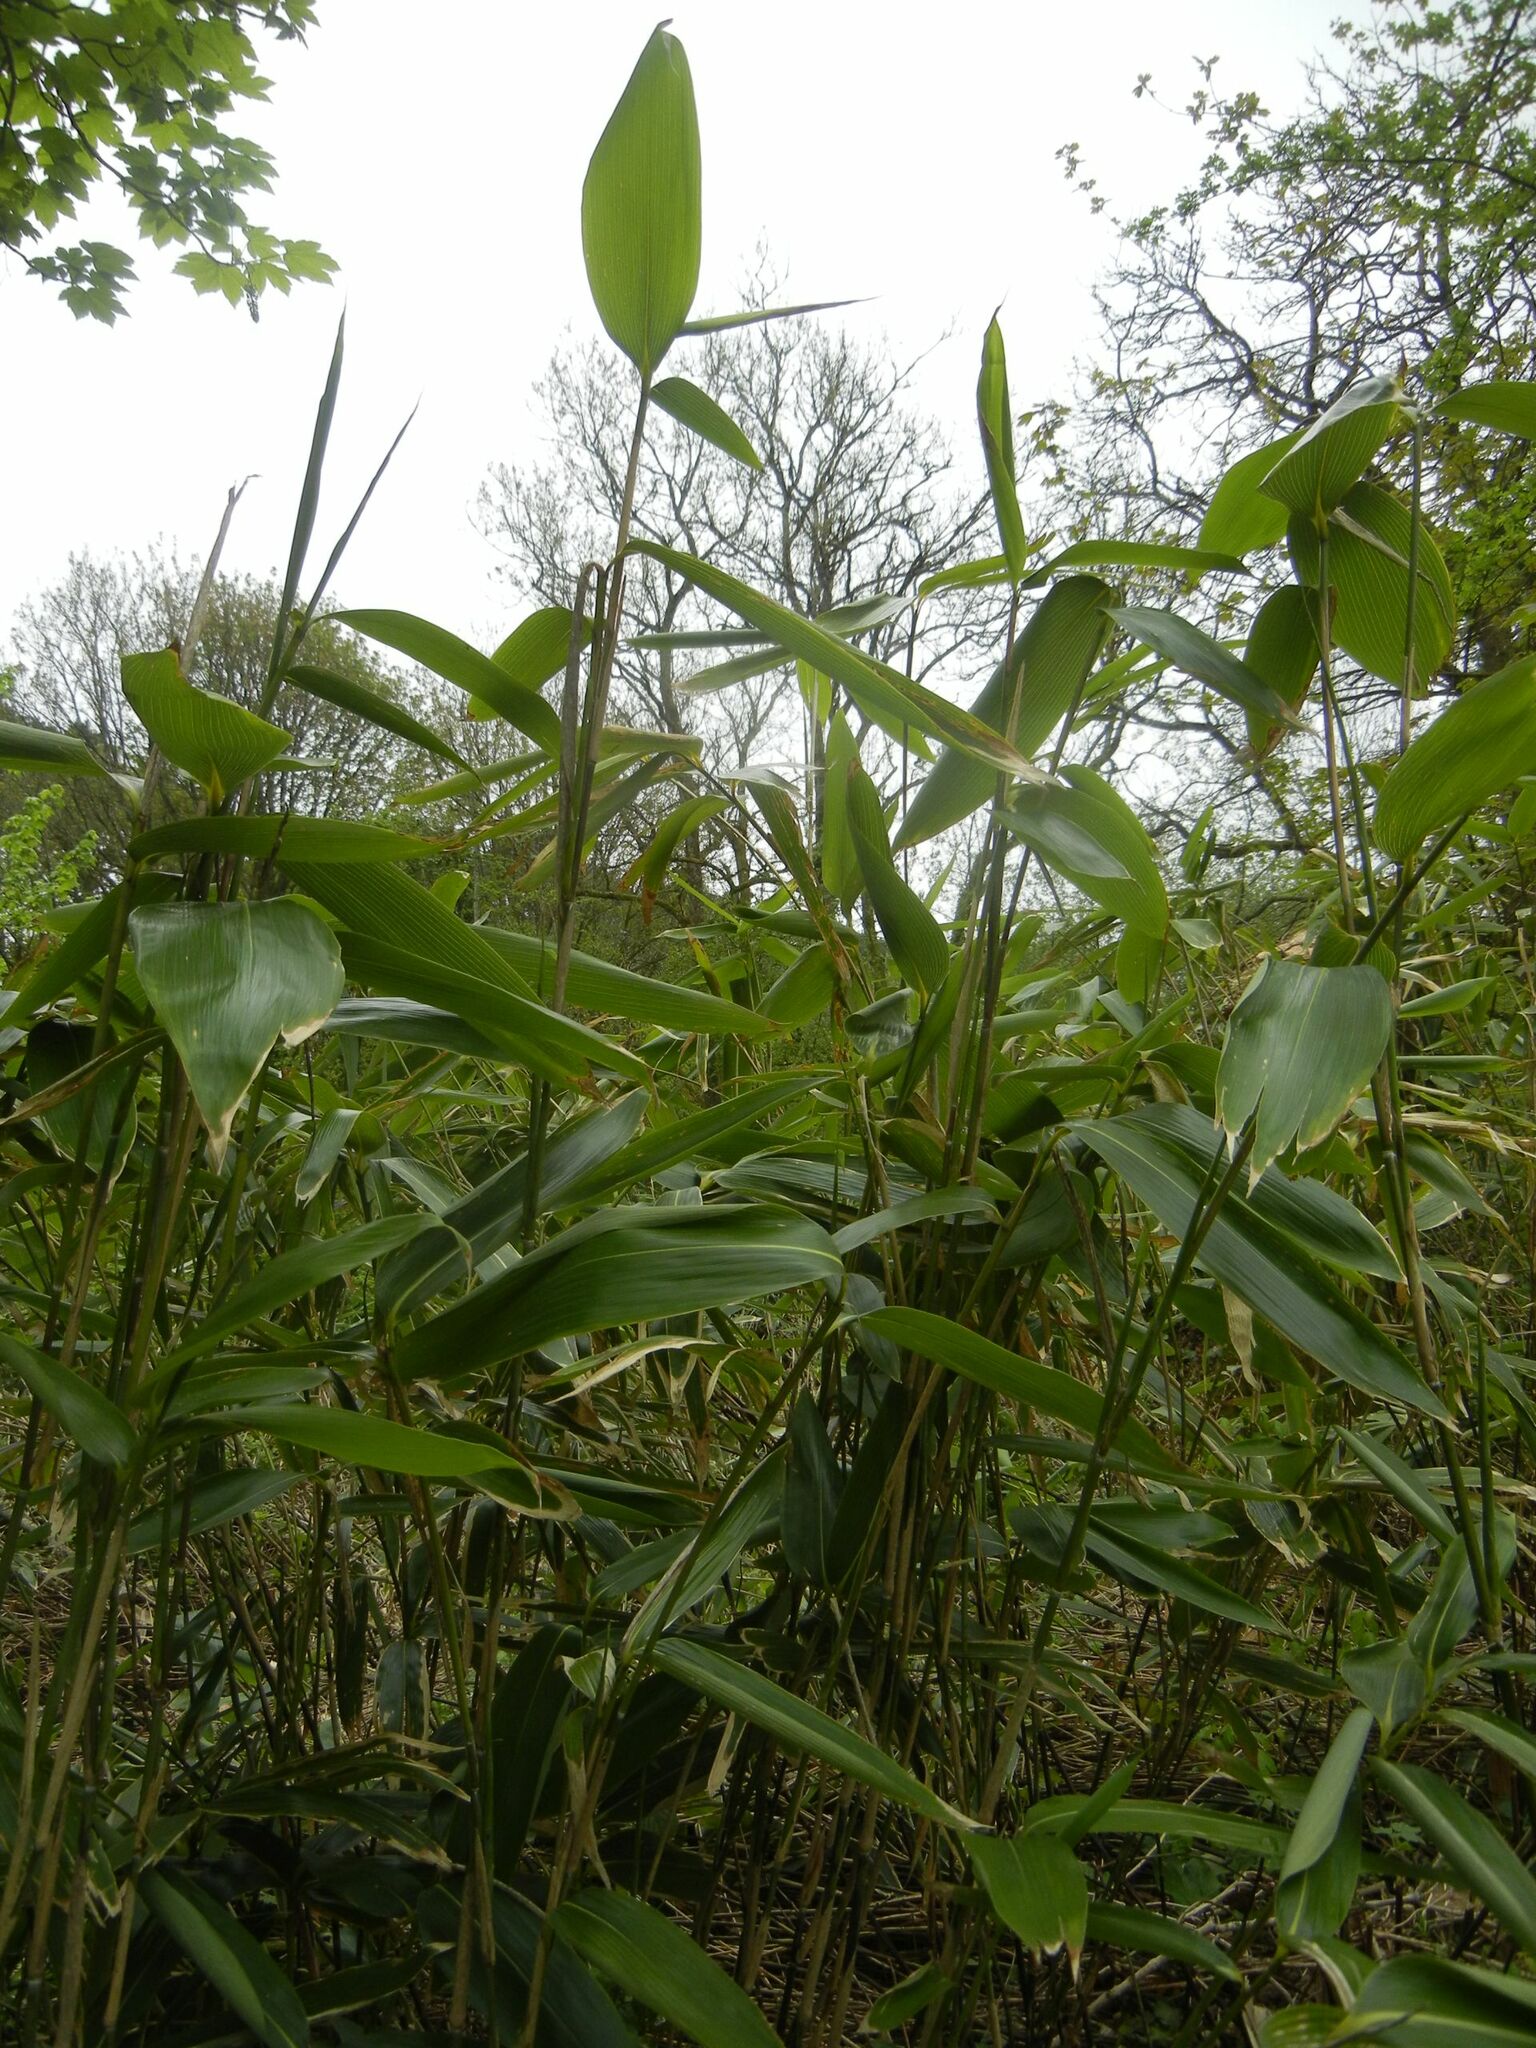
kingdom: Plantae
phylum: Tracheophyta
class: Liliopsida
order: Poales
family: Poaceae
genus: Sasa
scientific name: Sasa palmata
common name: Broad-leaved bamboo
